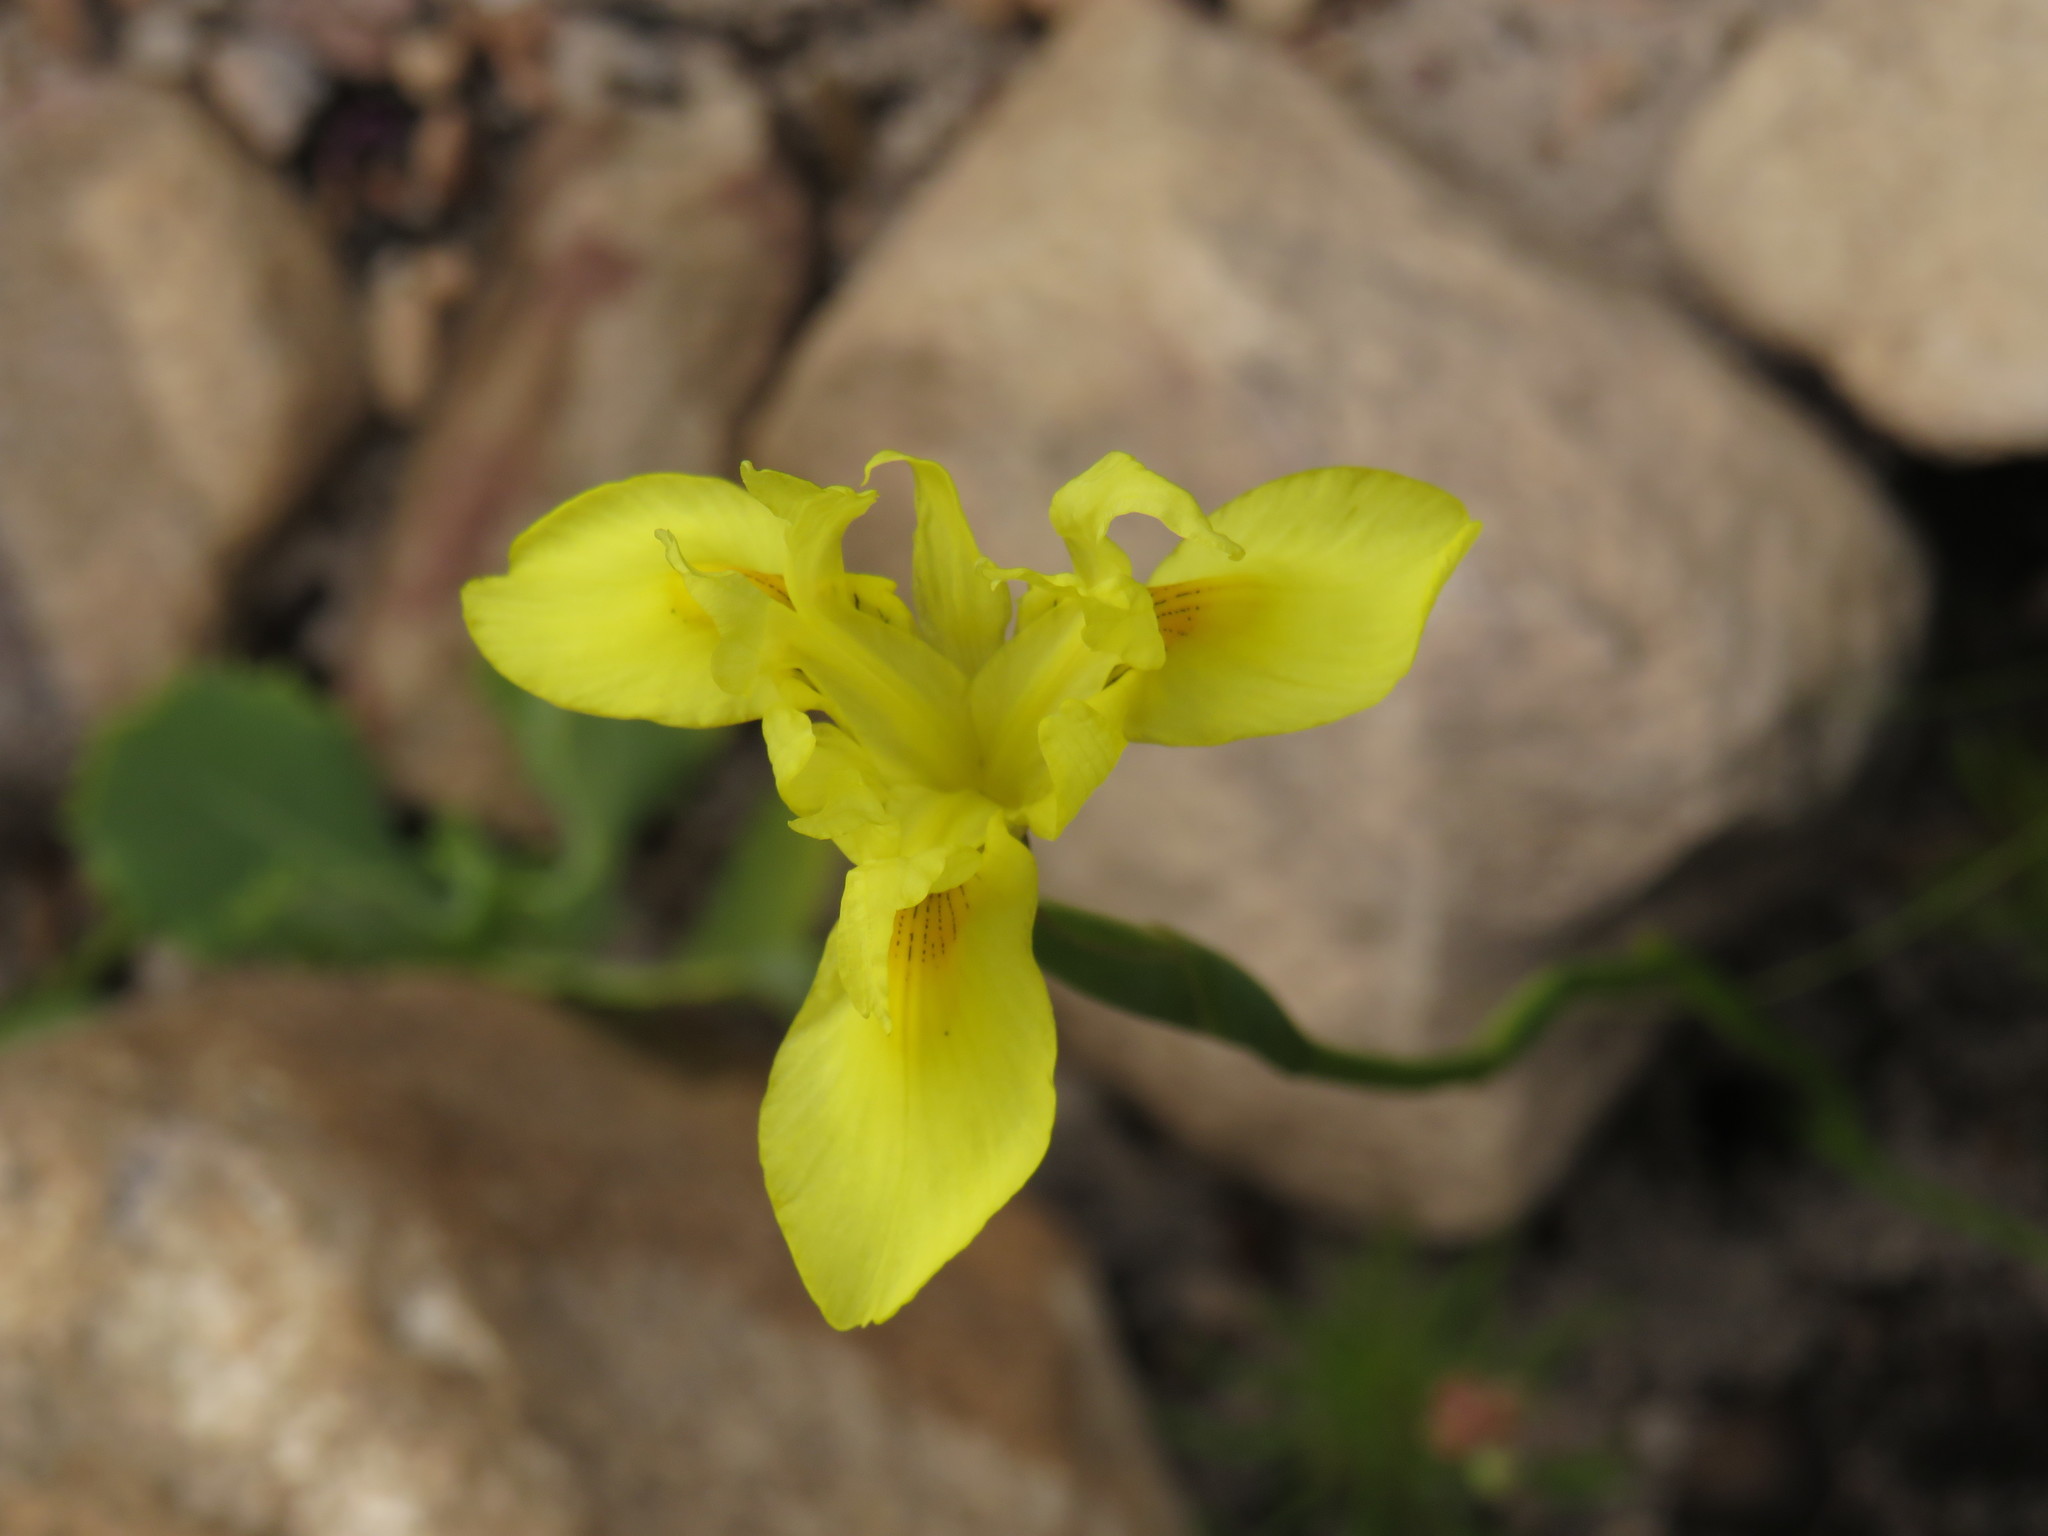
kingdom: Plantae
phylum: Tracheophyta
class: Liliopsida
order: Asparagales
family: Iridaceae
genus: Moraea
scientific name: Moraea neglecta
